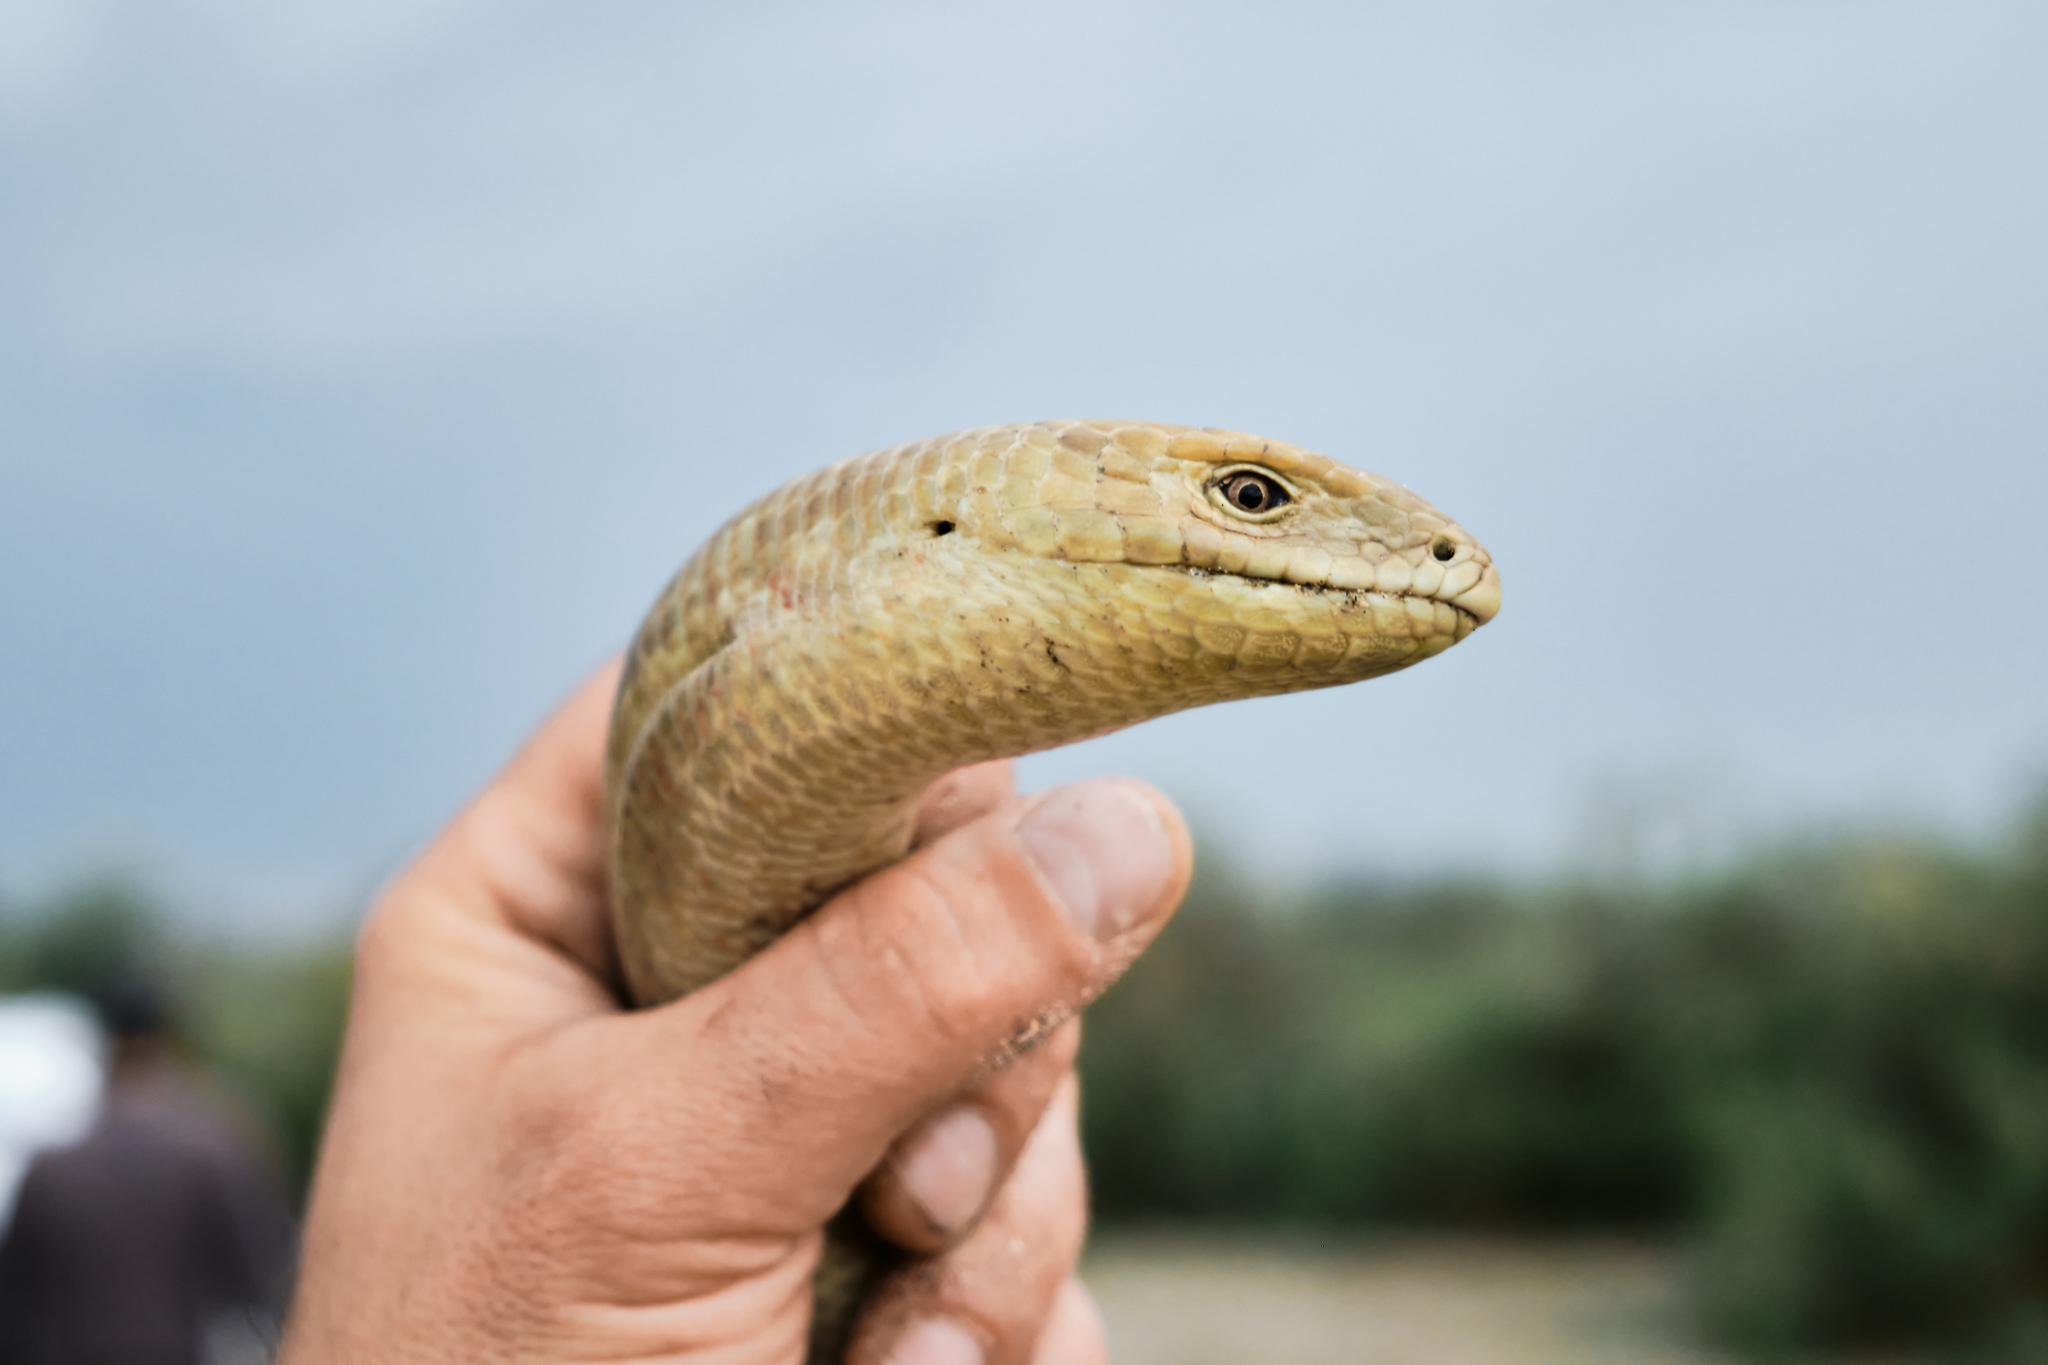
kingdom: Animalia
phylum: Chordata
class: Squamata
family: Anguidae
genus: Pseudopus
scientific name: Pseudopus apodus
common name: European glass lizard
